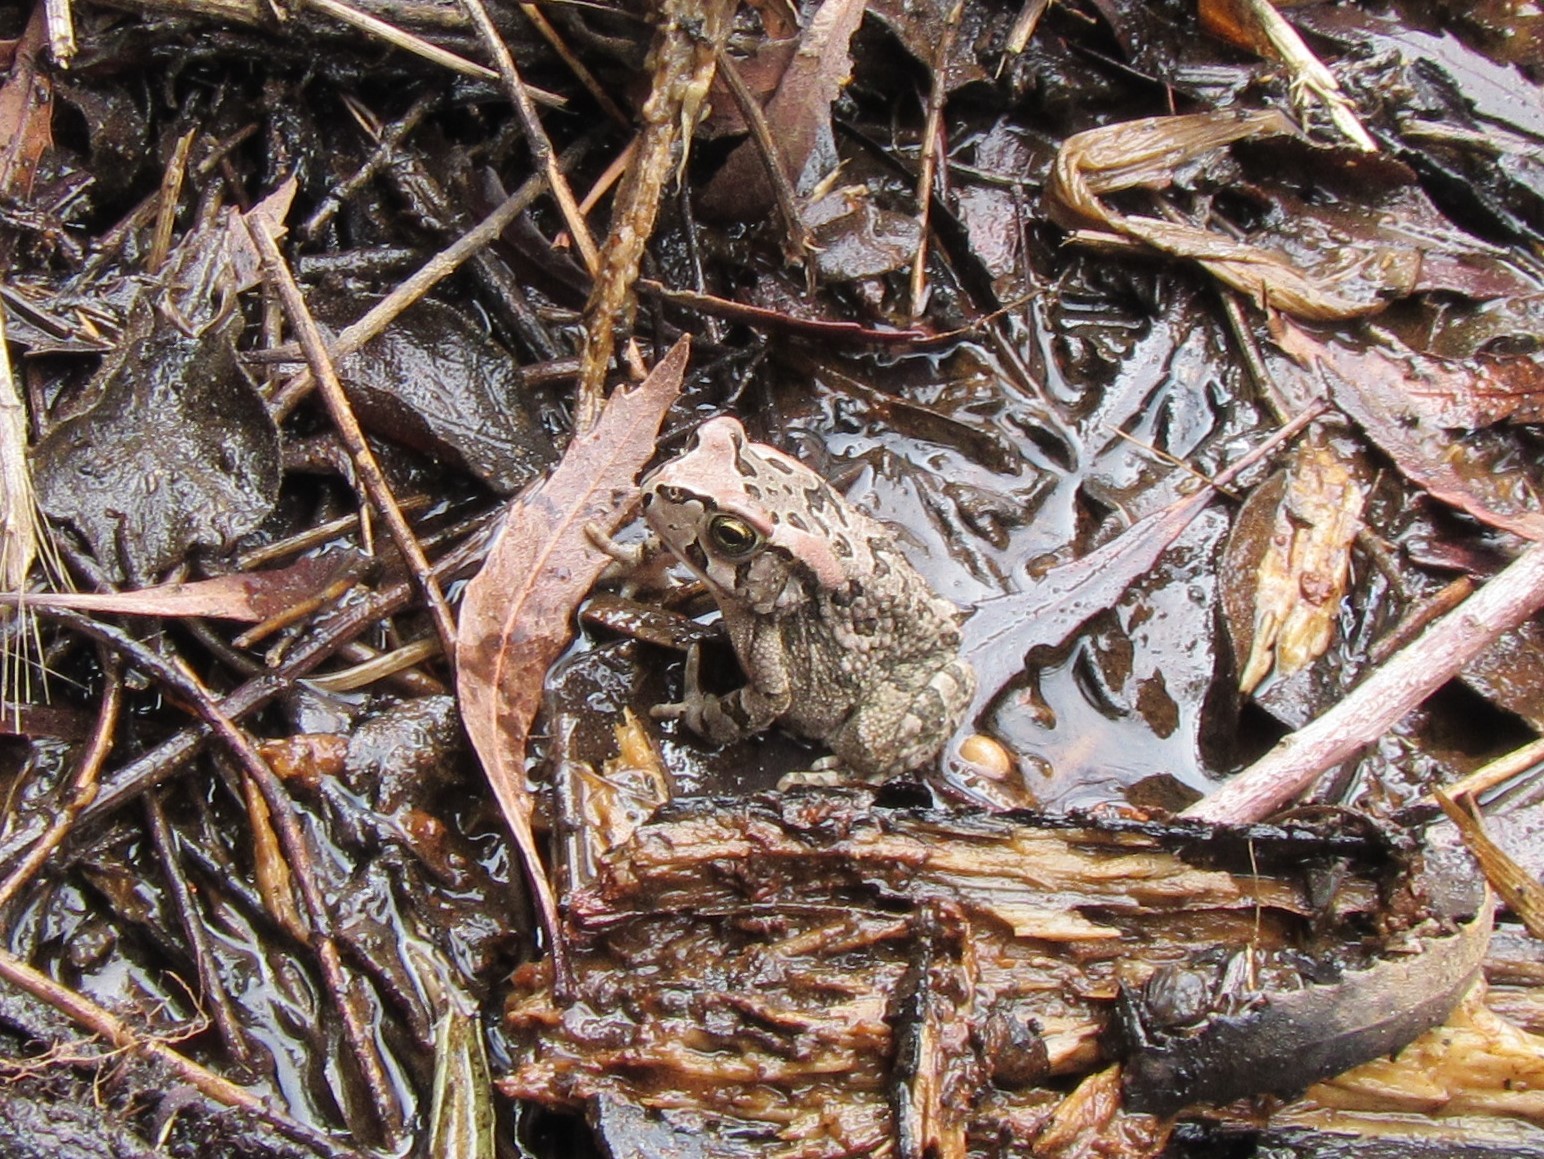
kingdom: Animalia
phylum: Chordata
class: Amphibia
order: Anura
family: Bufonidae
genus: Sclerophrys
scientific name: Sclerophrys capensis
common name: Ranger’s toad
